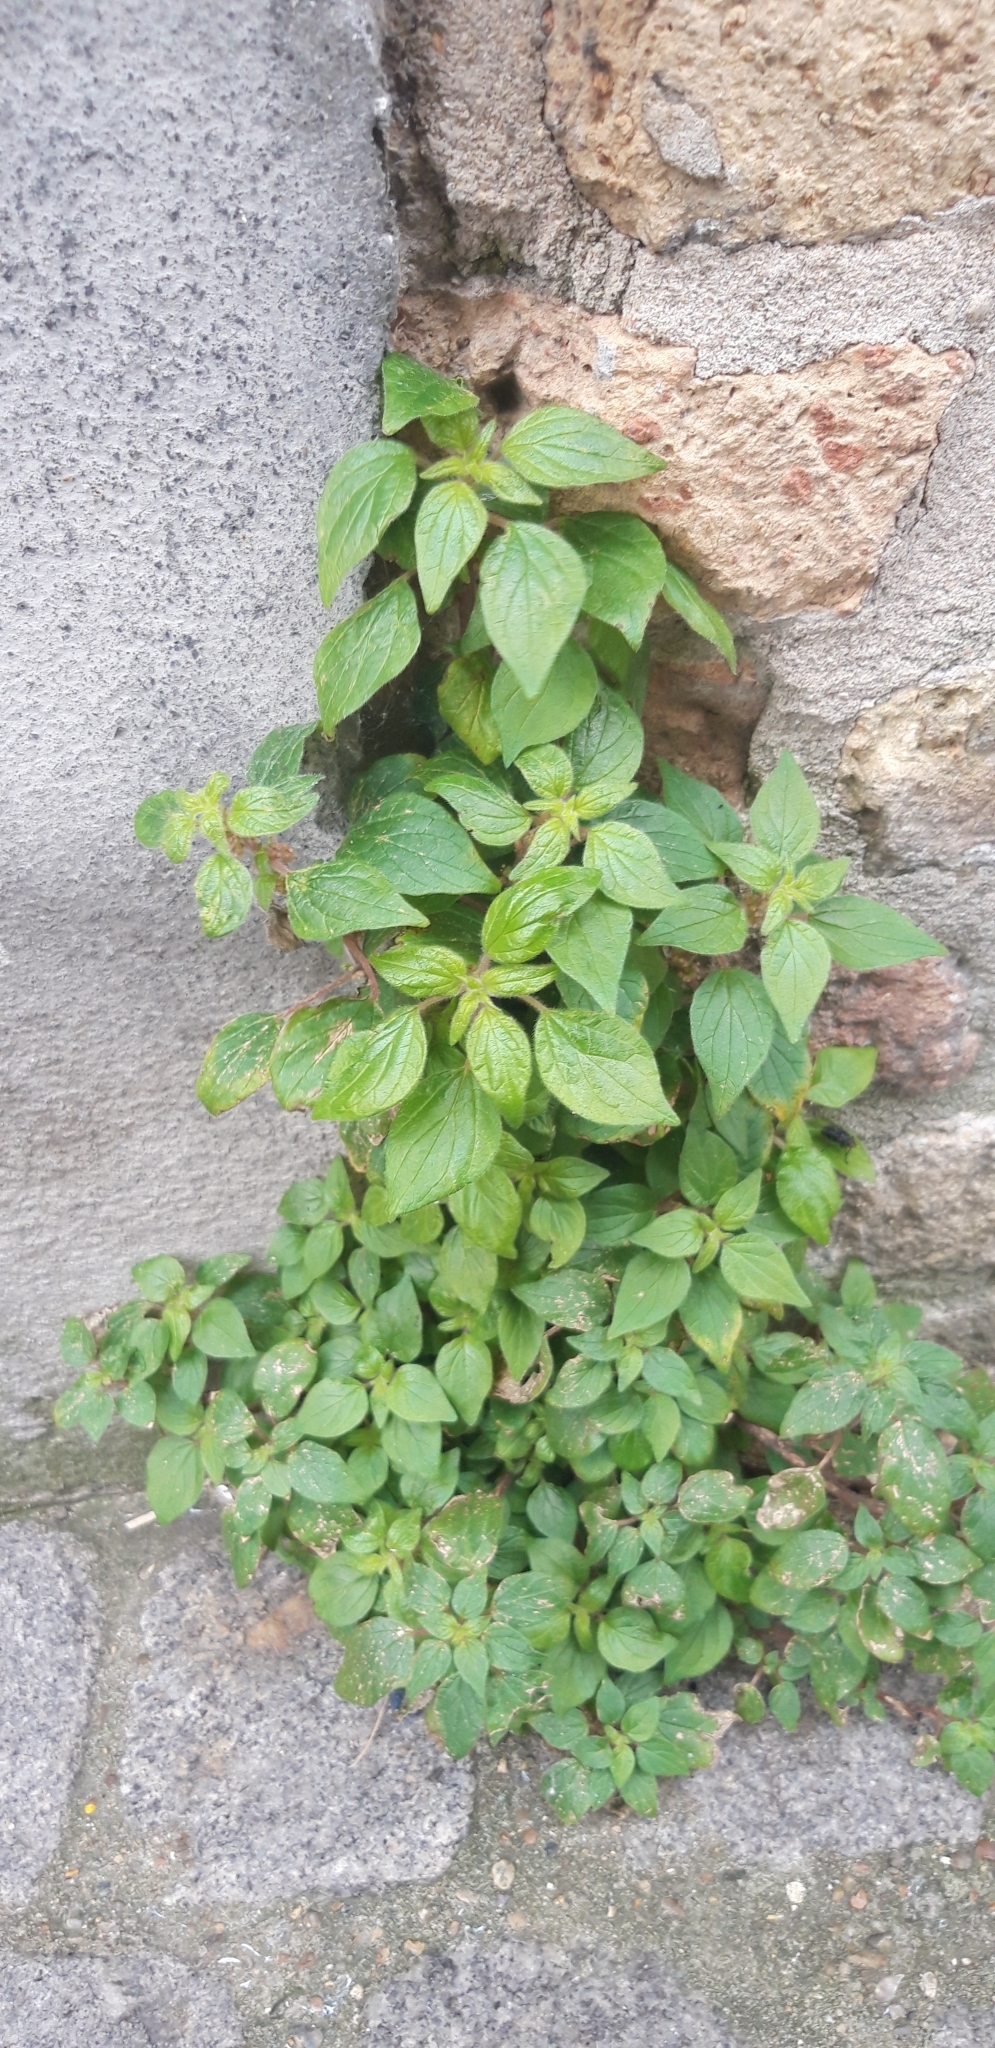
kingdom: Plantae
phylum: Tracheophyta
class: Magnoliopsida
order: Rosales
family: Urticaceae
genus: Parietaria
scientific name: Parietaria judaica
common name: Pellitory-of-the-wall
